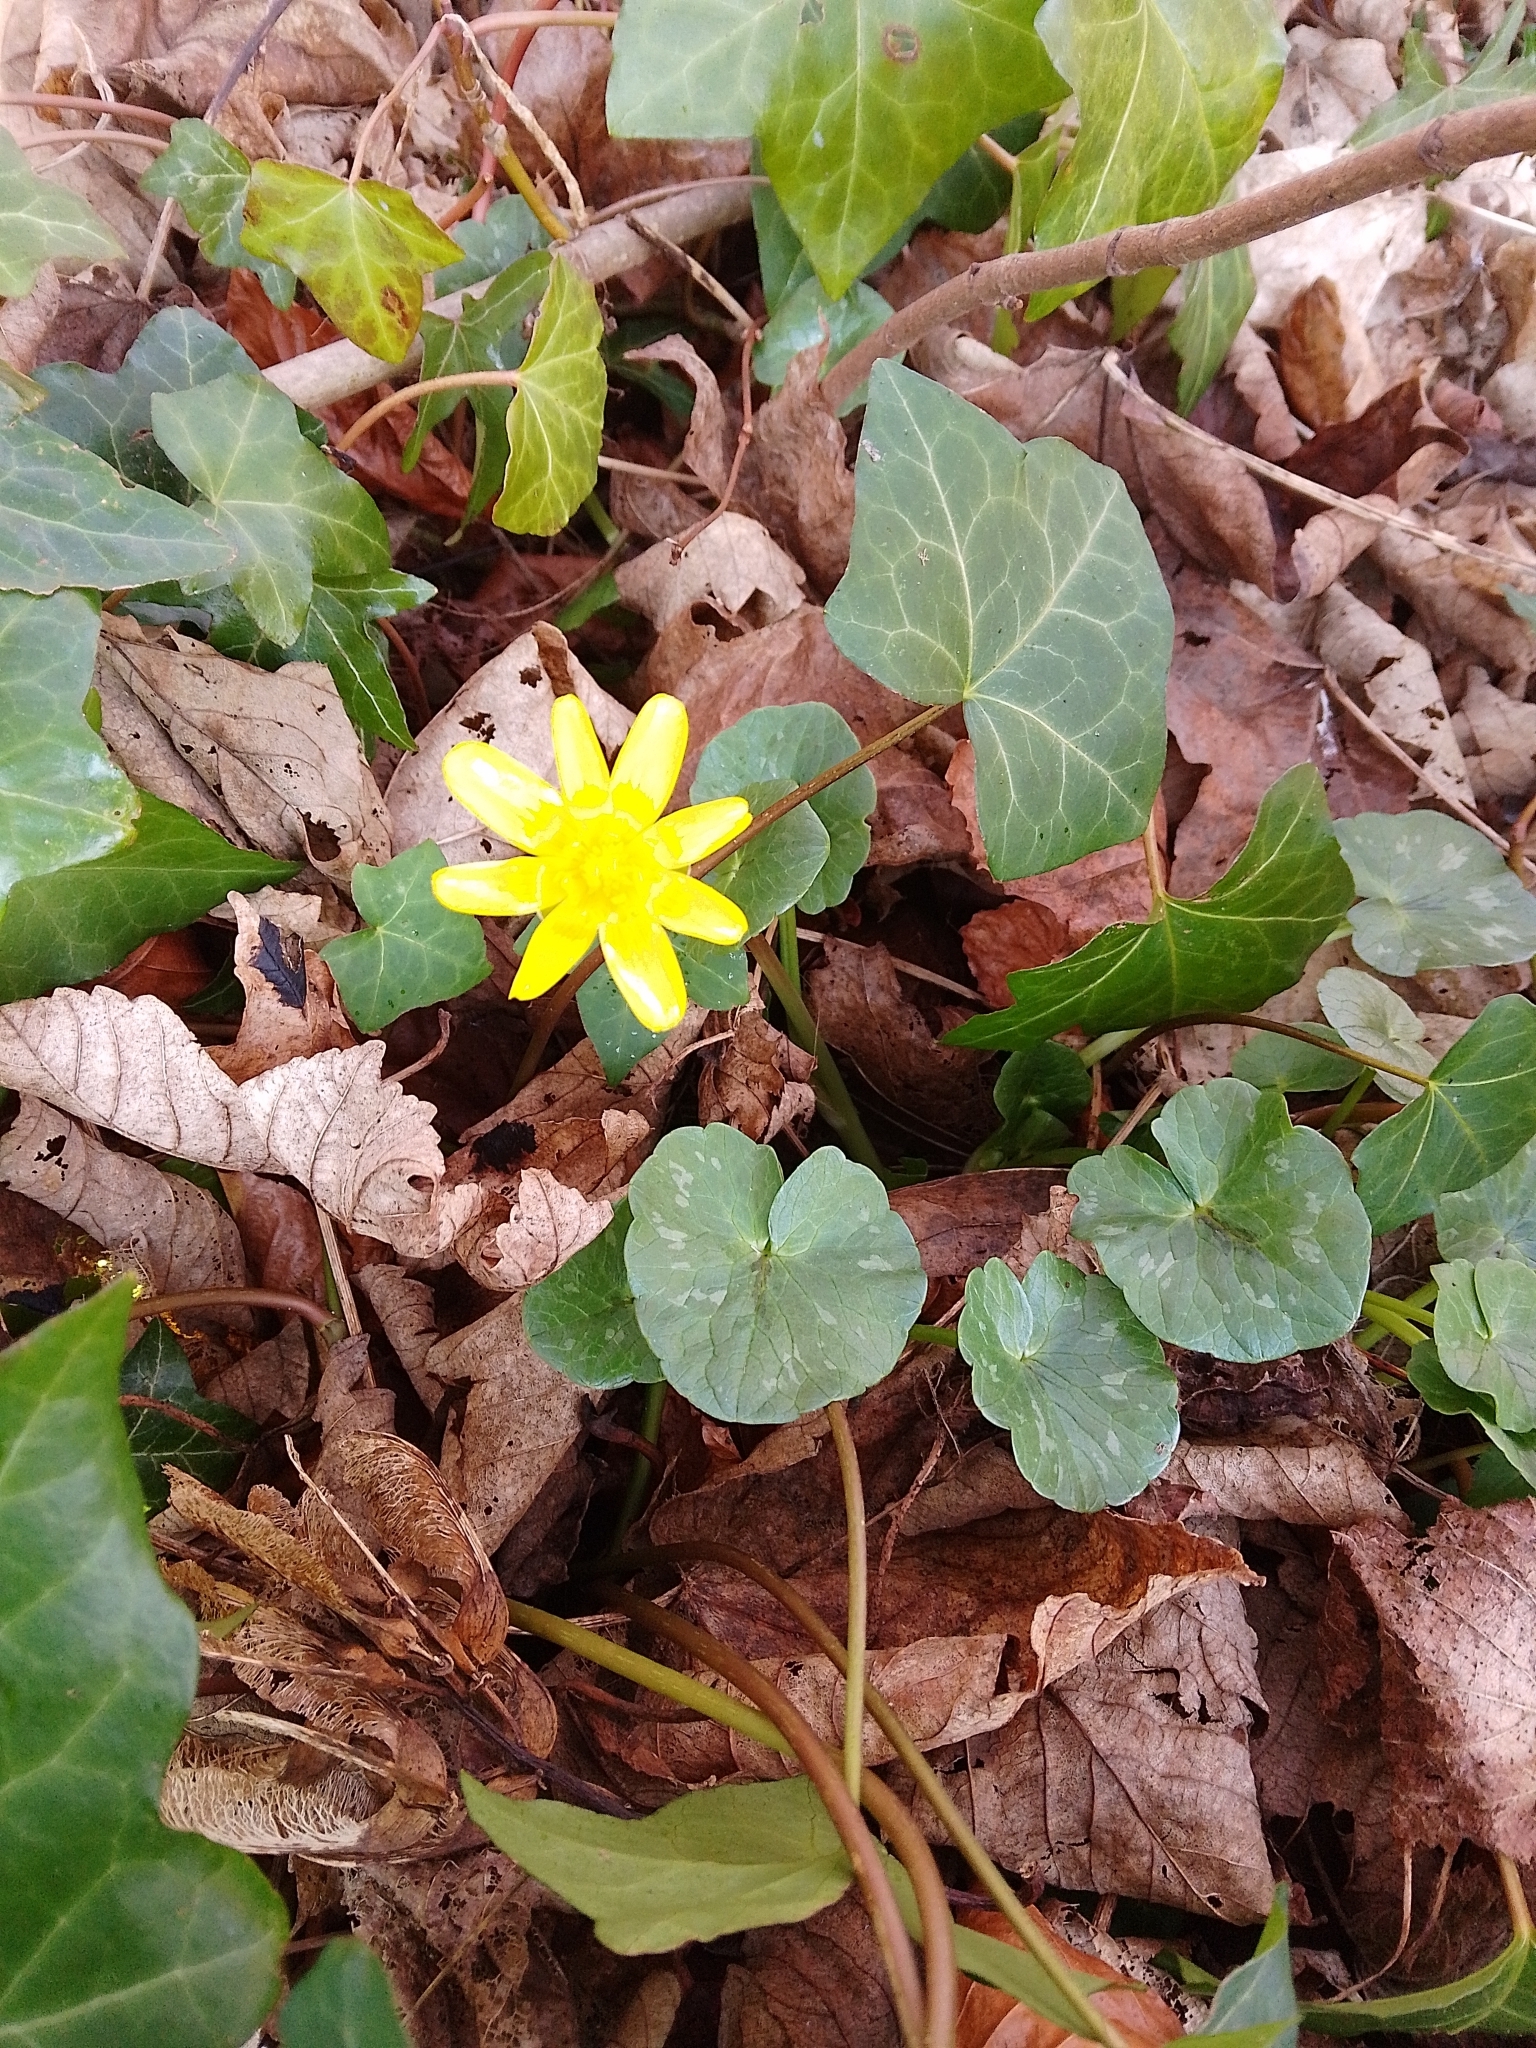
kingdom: Plantae
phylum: Tracheophyta
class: Magnoliopsida
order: Ranunculales
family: Ranunculaceae
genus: Ficaria
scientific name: Ficaria verna
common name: Lesser celandine
